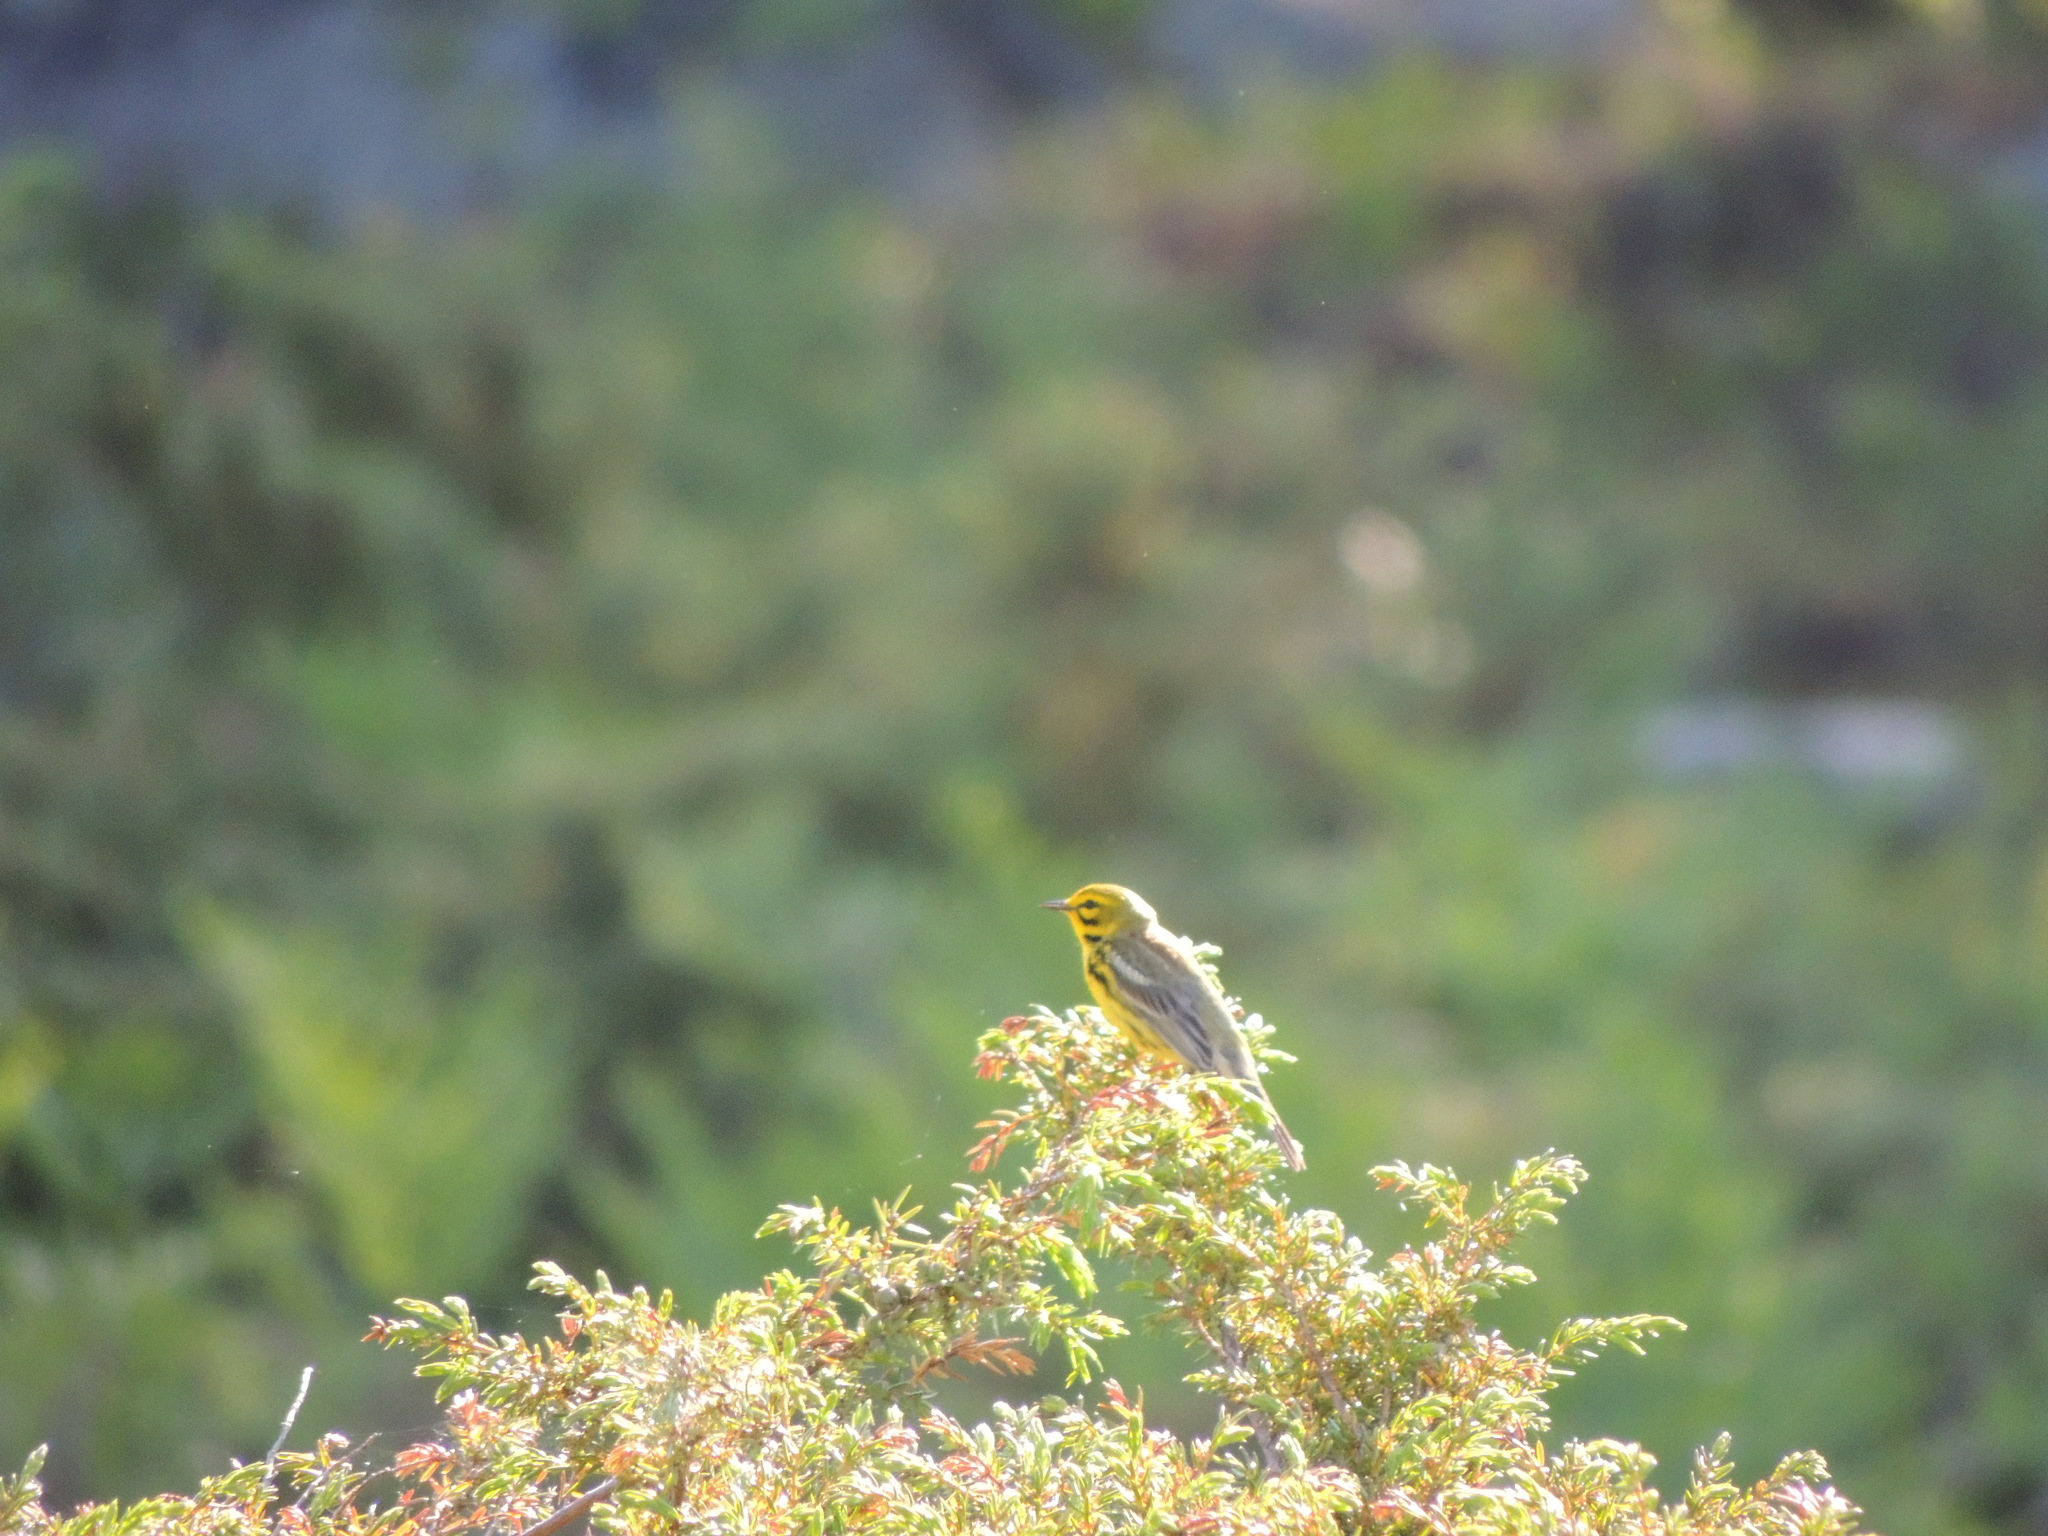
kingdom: Animalia
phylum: Chordata
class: Aves
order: Passeriformes
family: Parulidae
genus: Setophaga
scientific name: Setophaga discolor
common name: Prairie warbler
